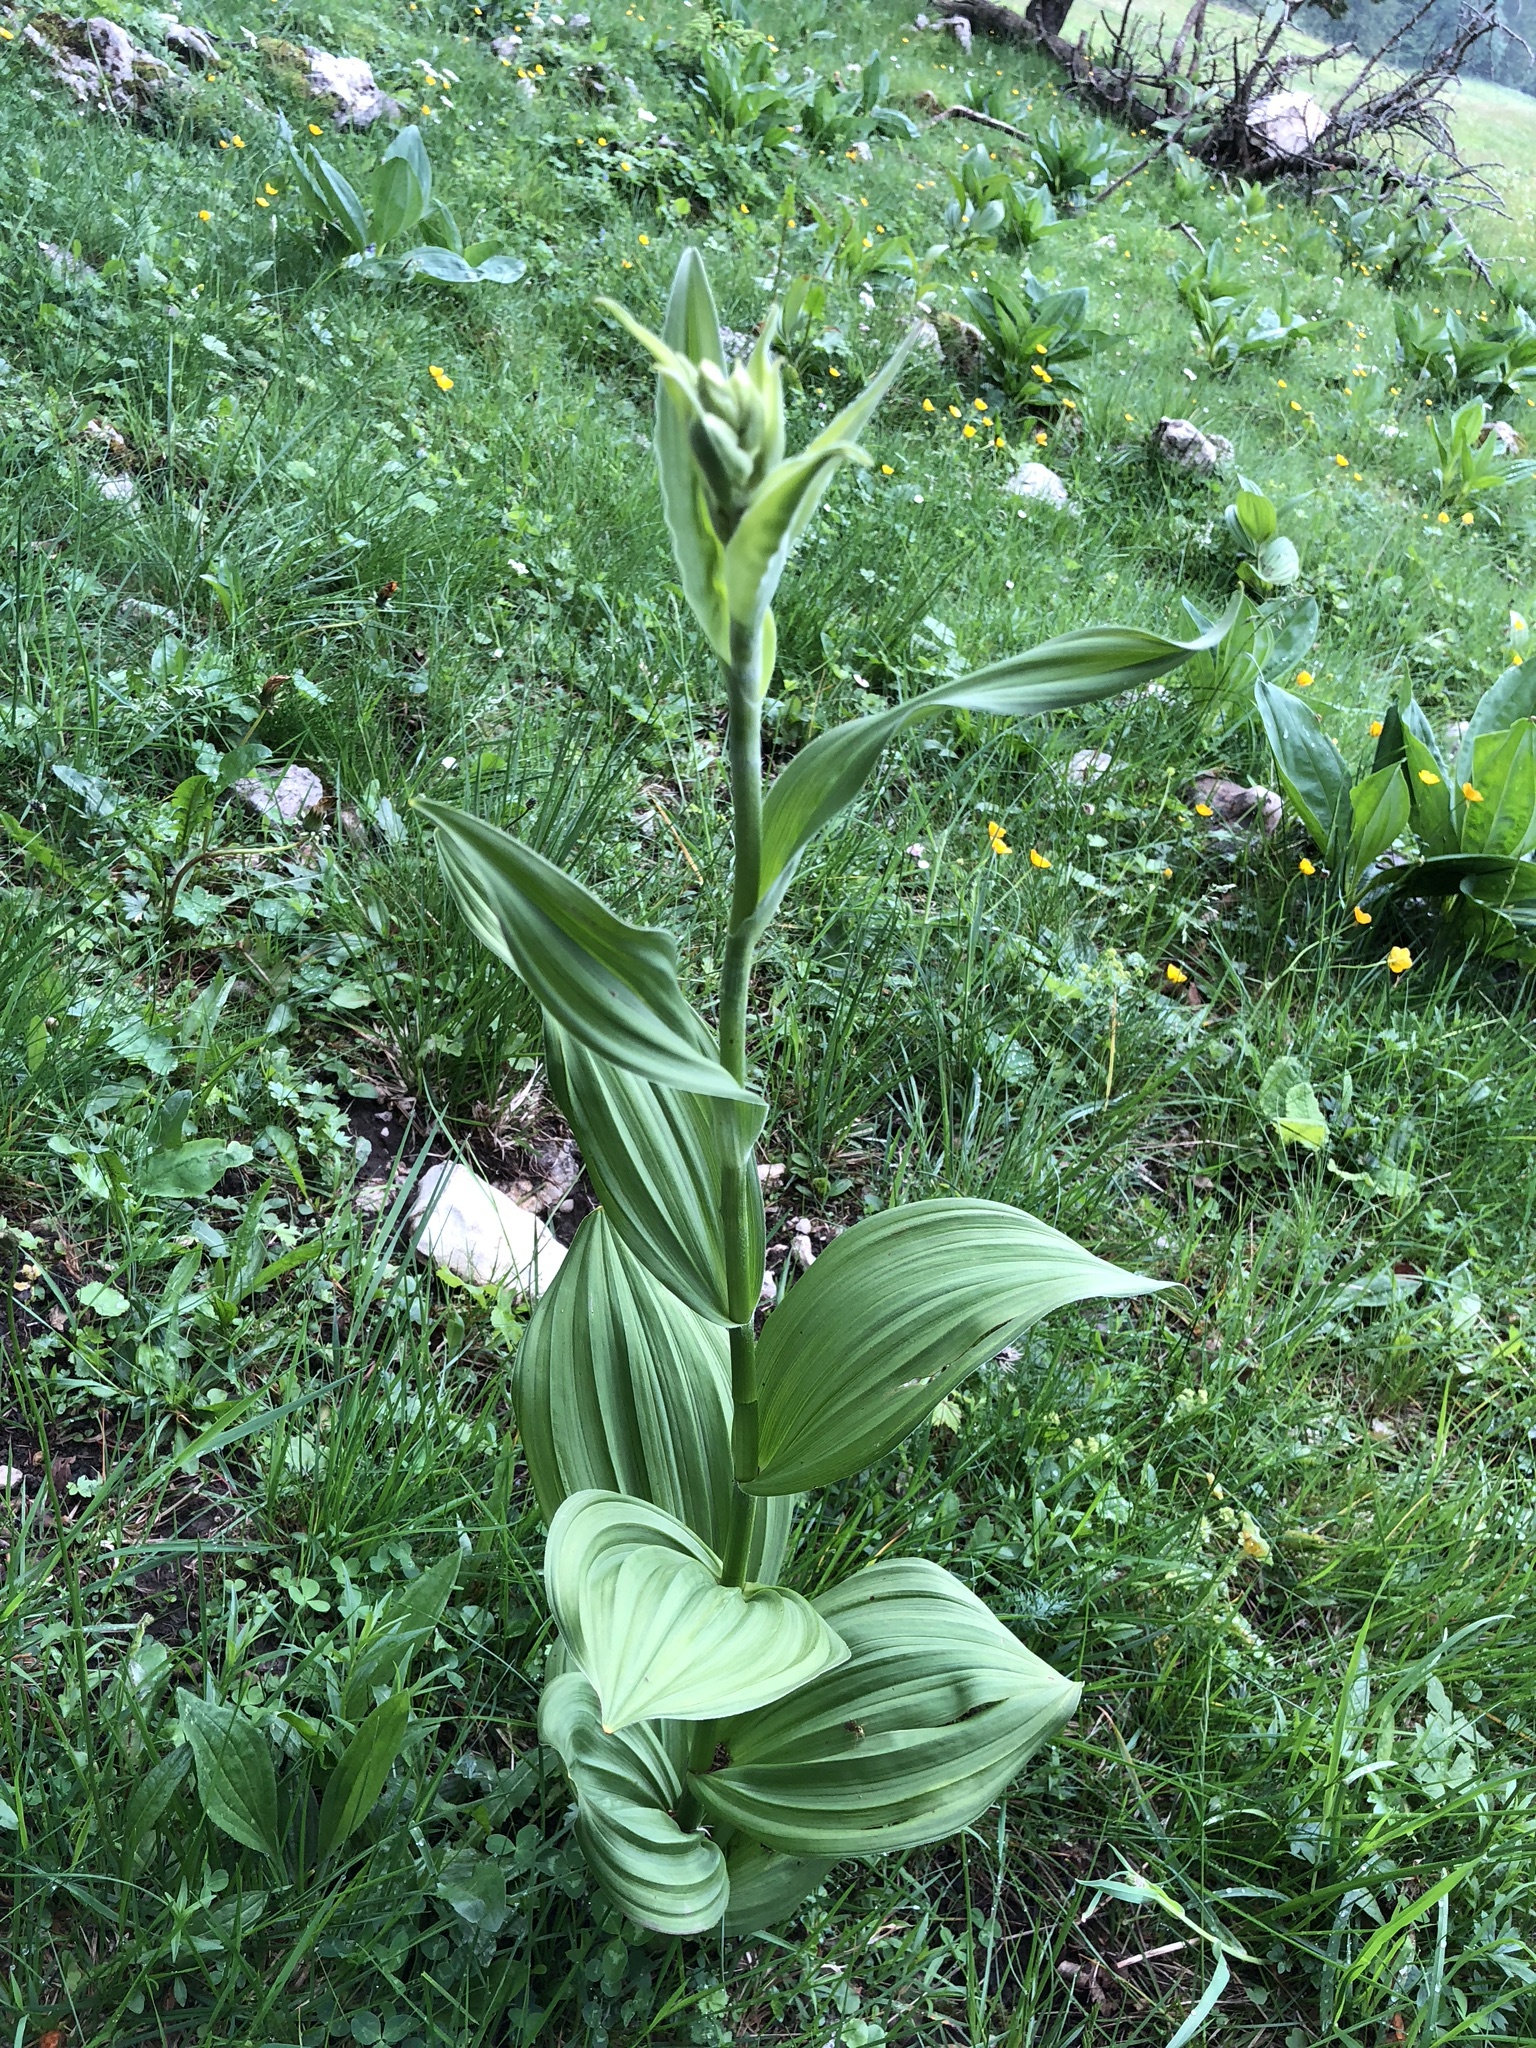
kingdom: Plantae
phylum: Tracheophyta
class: Liliopsida
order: Liliales
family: Melanthiaceae
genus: Veratrum
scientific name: Veratrum album
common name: White veratrum
